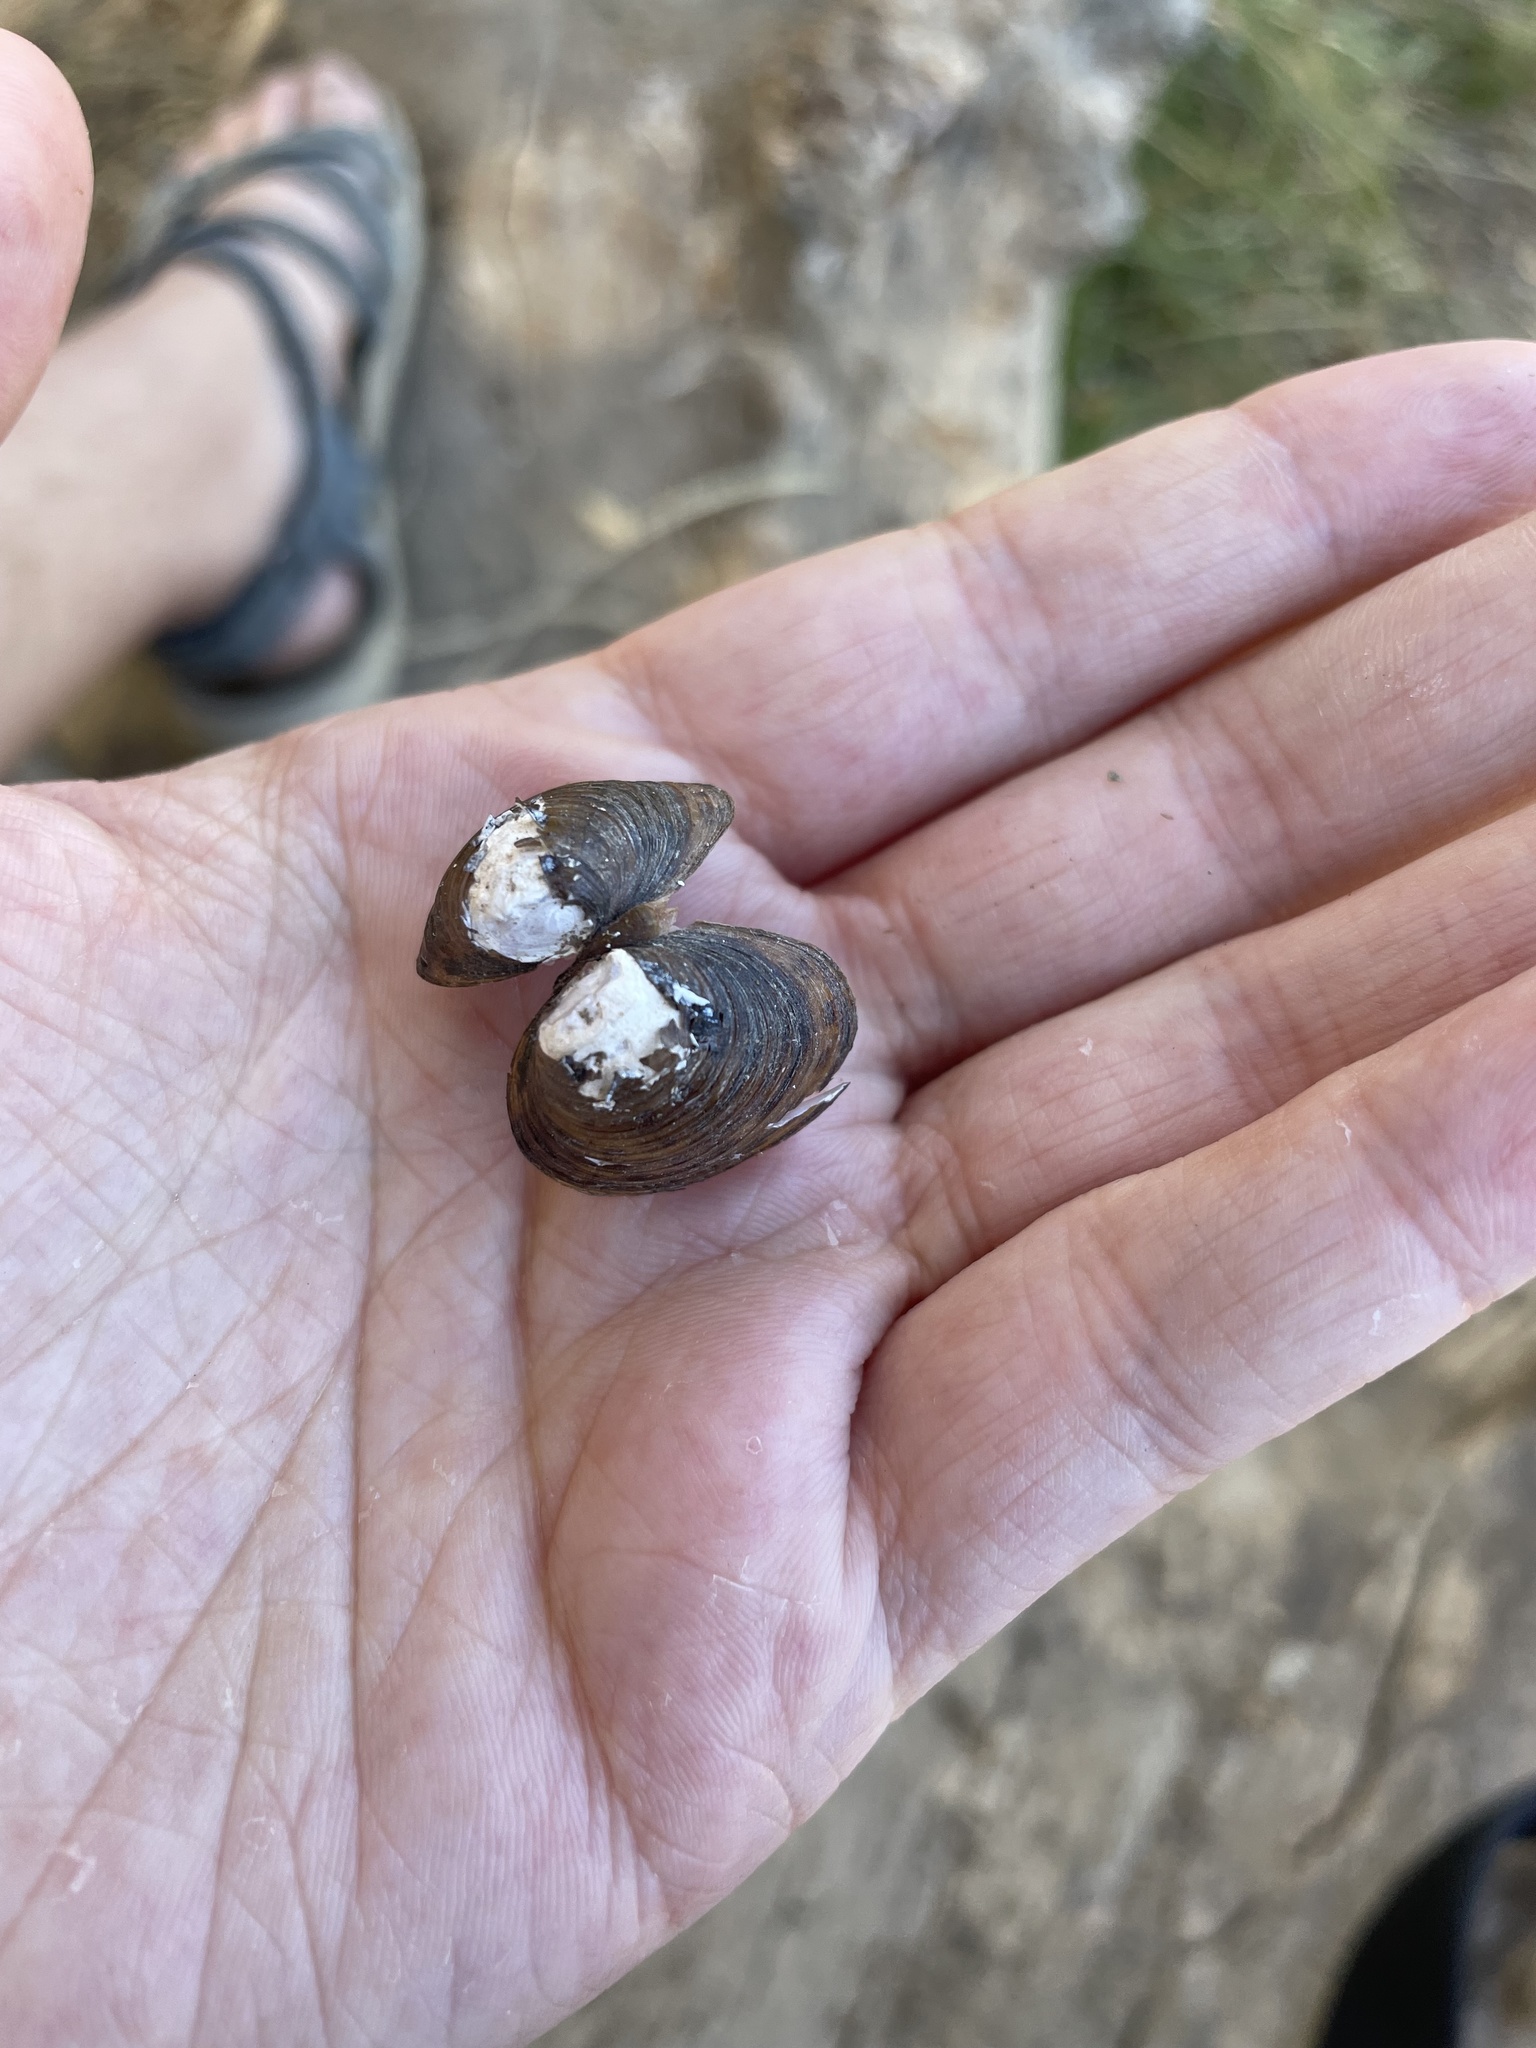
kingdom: Animalia
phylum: Mollusca
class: Bivalvia
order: Venerida
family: Cyrenidae
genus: Corbicula
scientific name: Corbicula fluminea
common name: Asian clam
